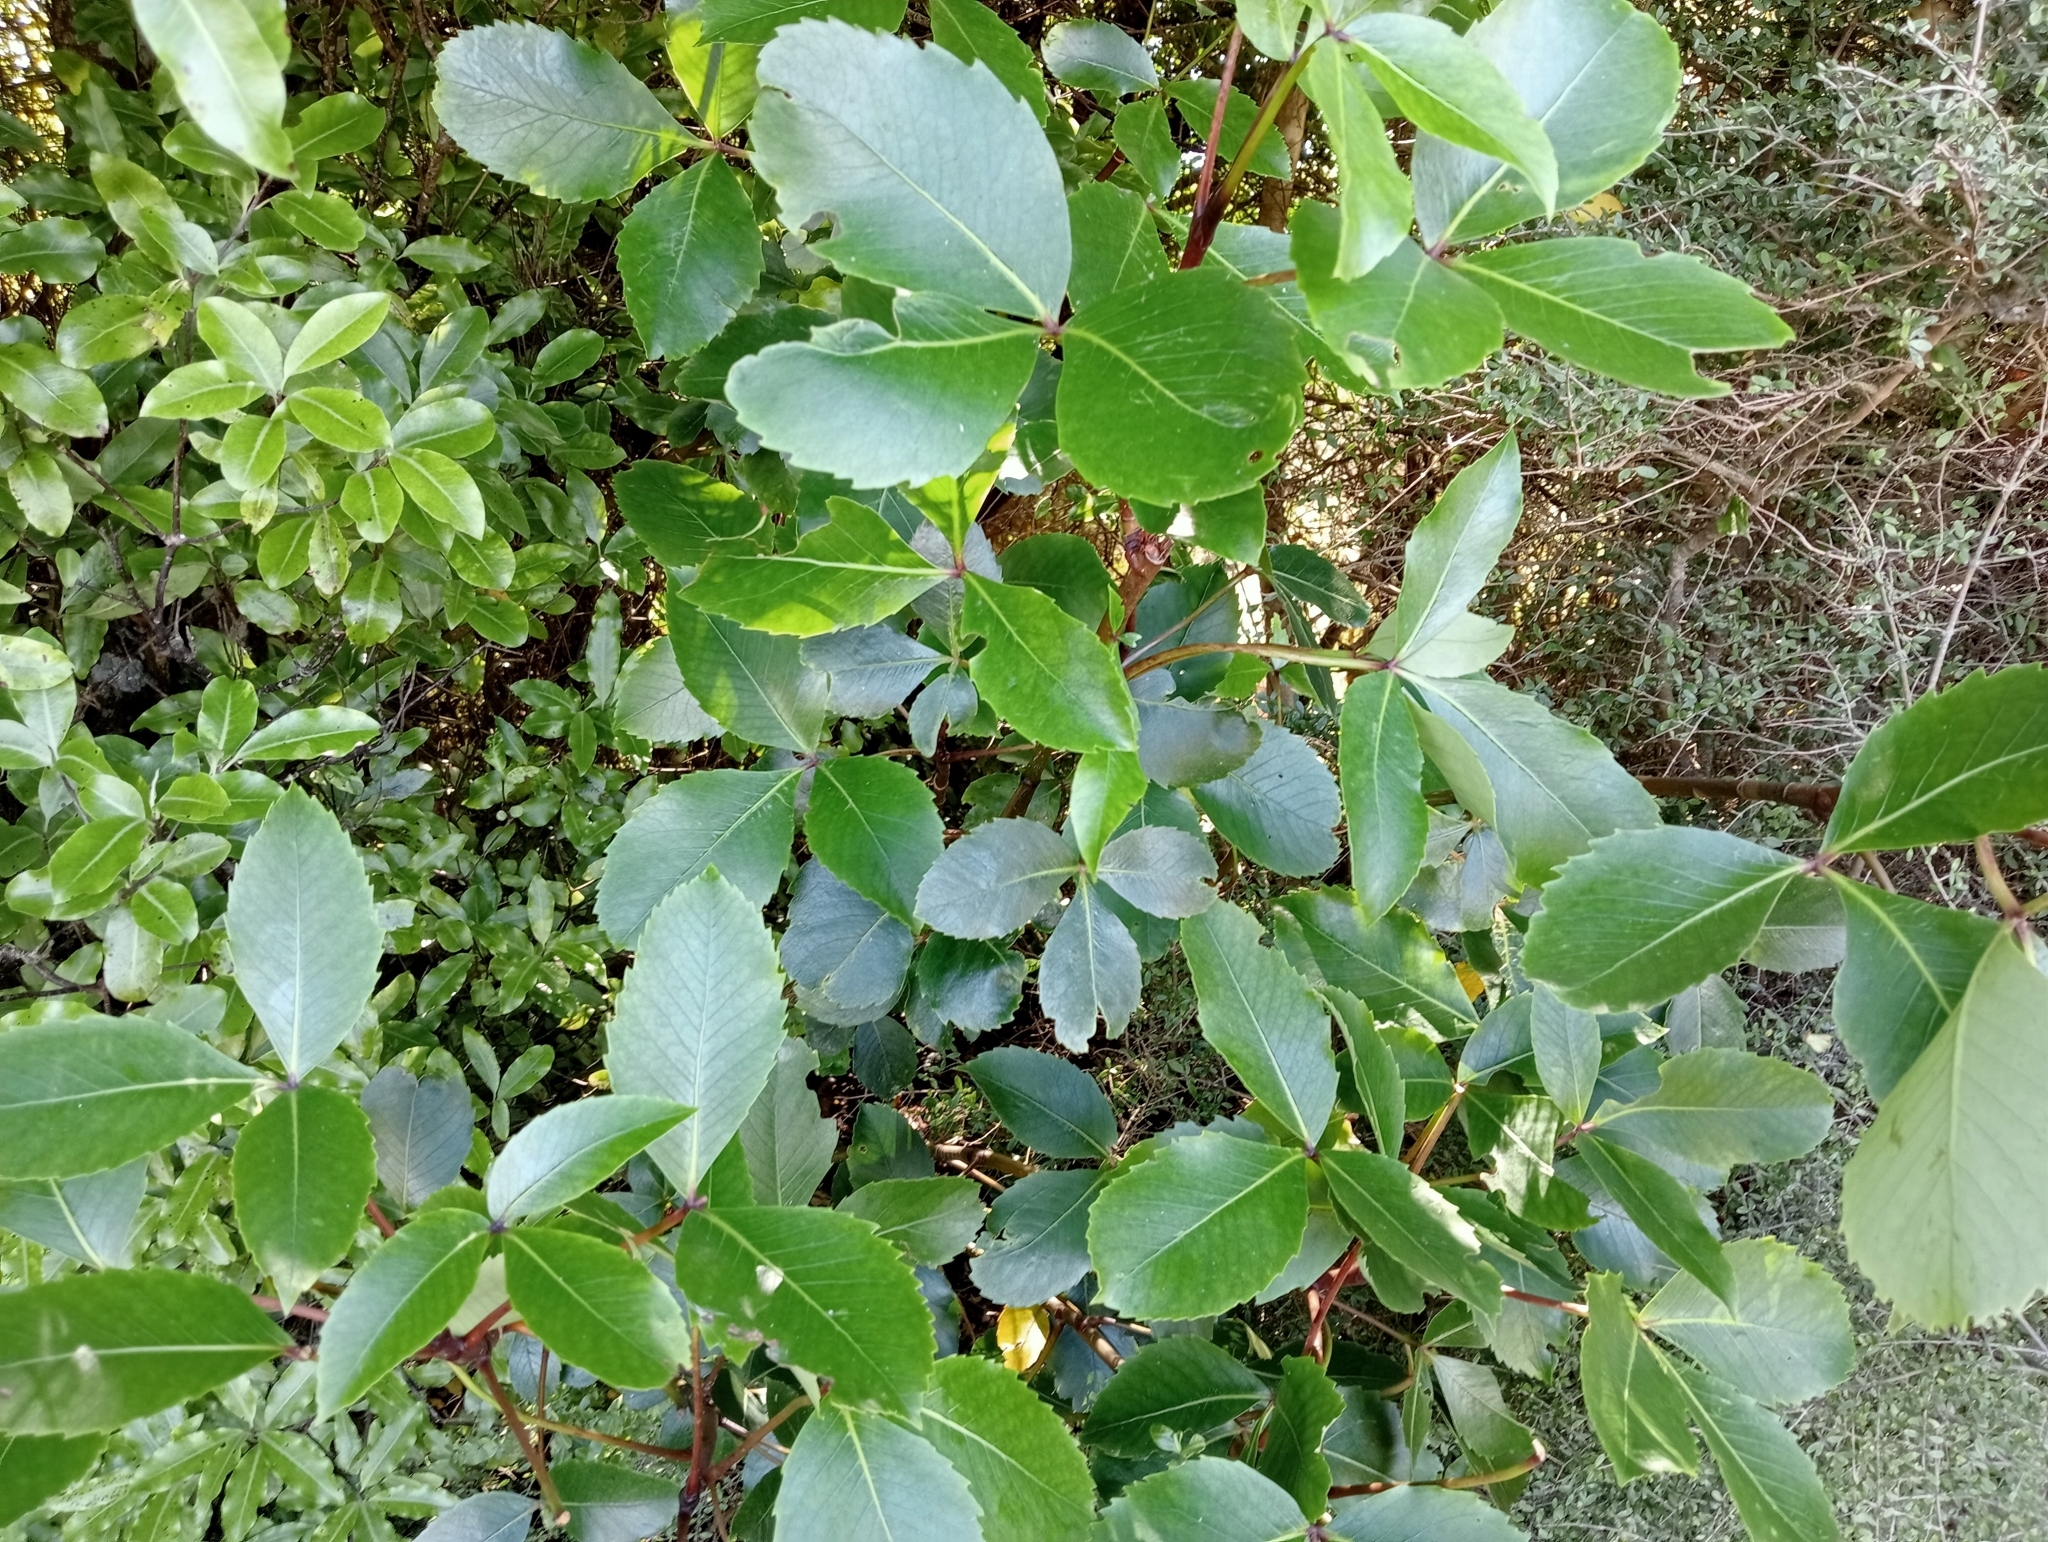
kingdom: Plantae
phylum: Tracheophyta
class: Magnoliopsida
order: Apiales
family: Araliaceae
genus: Neopanax
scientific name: Neopanax colensoi
